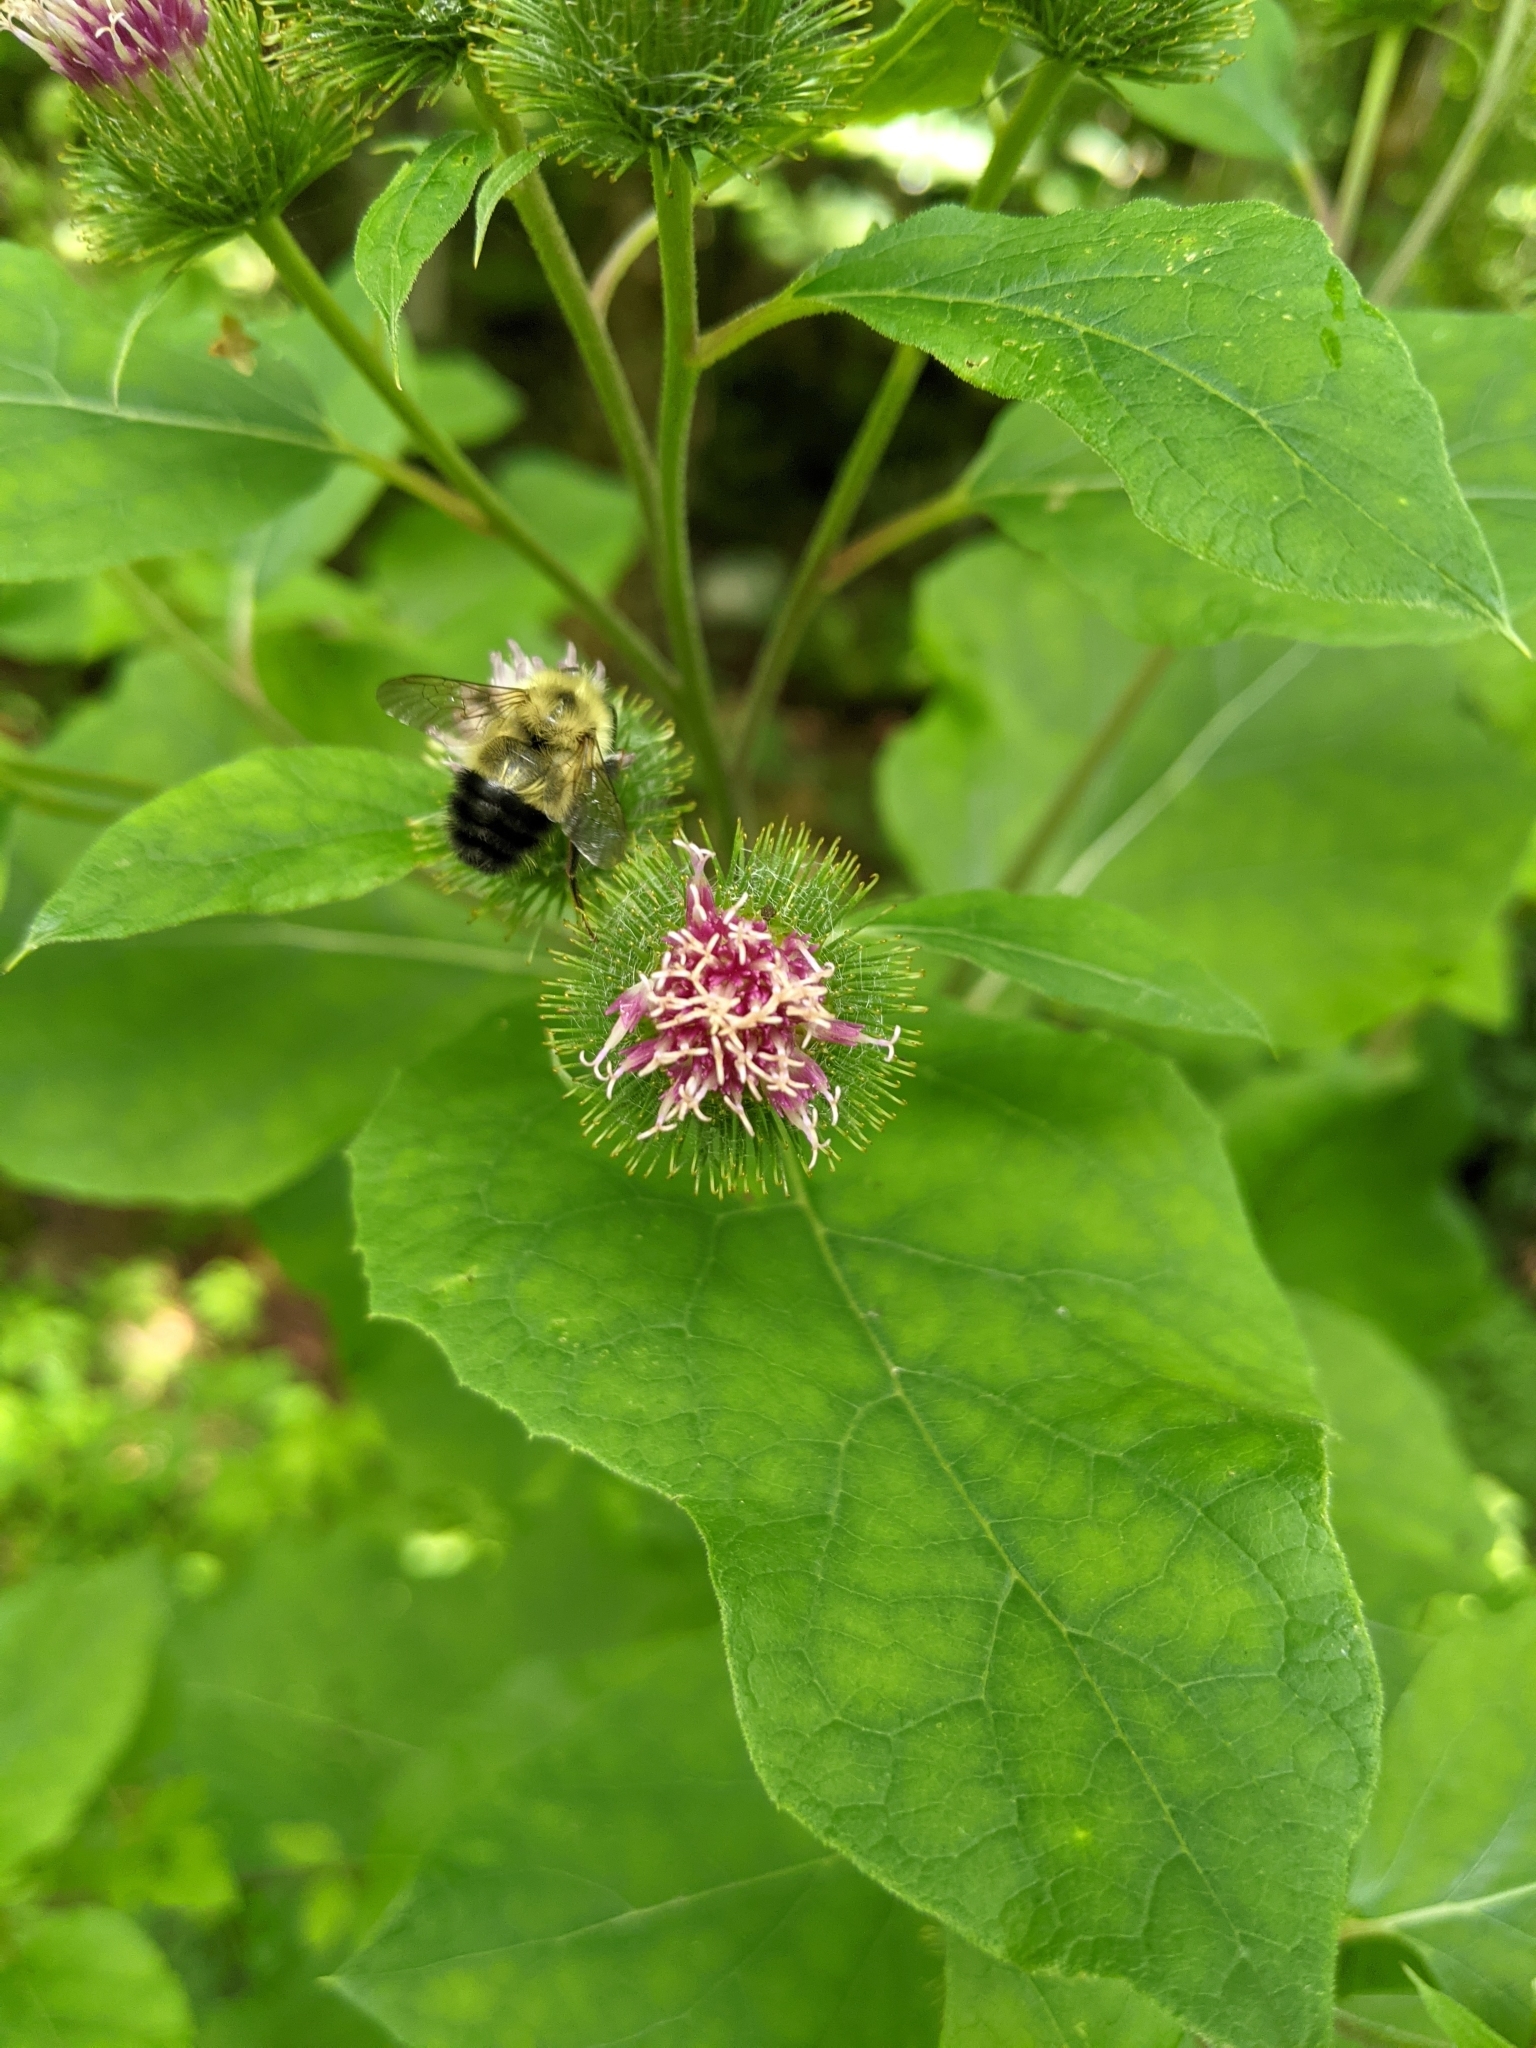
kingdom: Plantae
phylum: Tracheophyta
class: Magnoliopsida
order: Asterales
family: Asteraceae
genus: Arctium
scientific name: Arctium lappa
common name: Greater burdock
